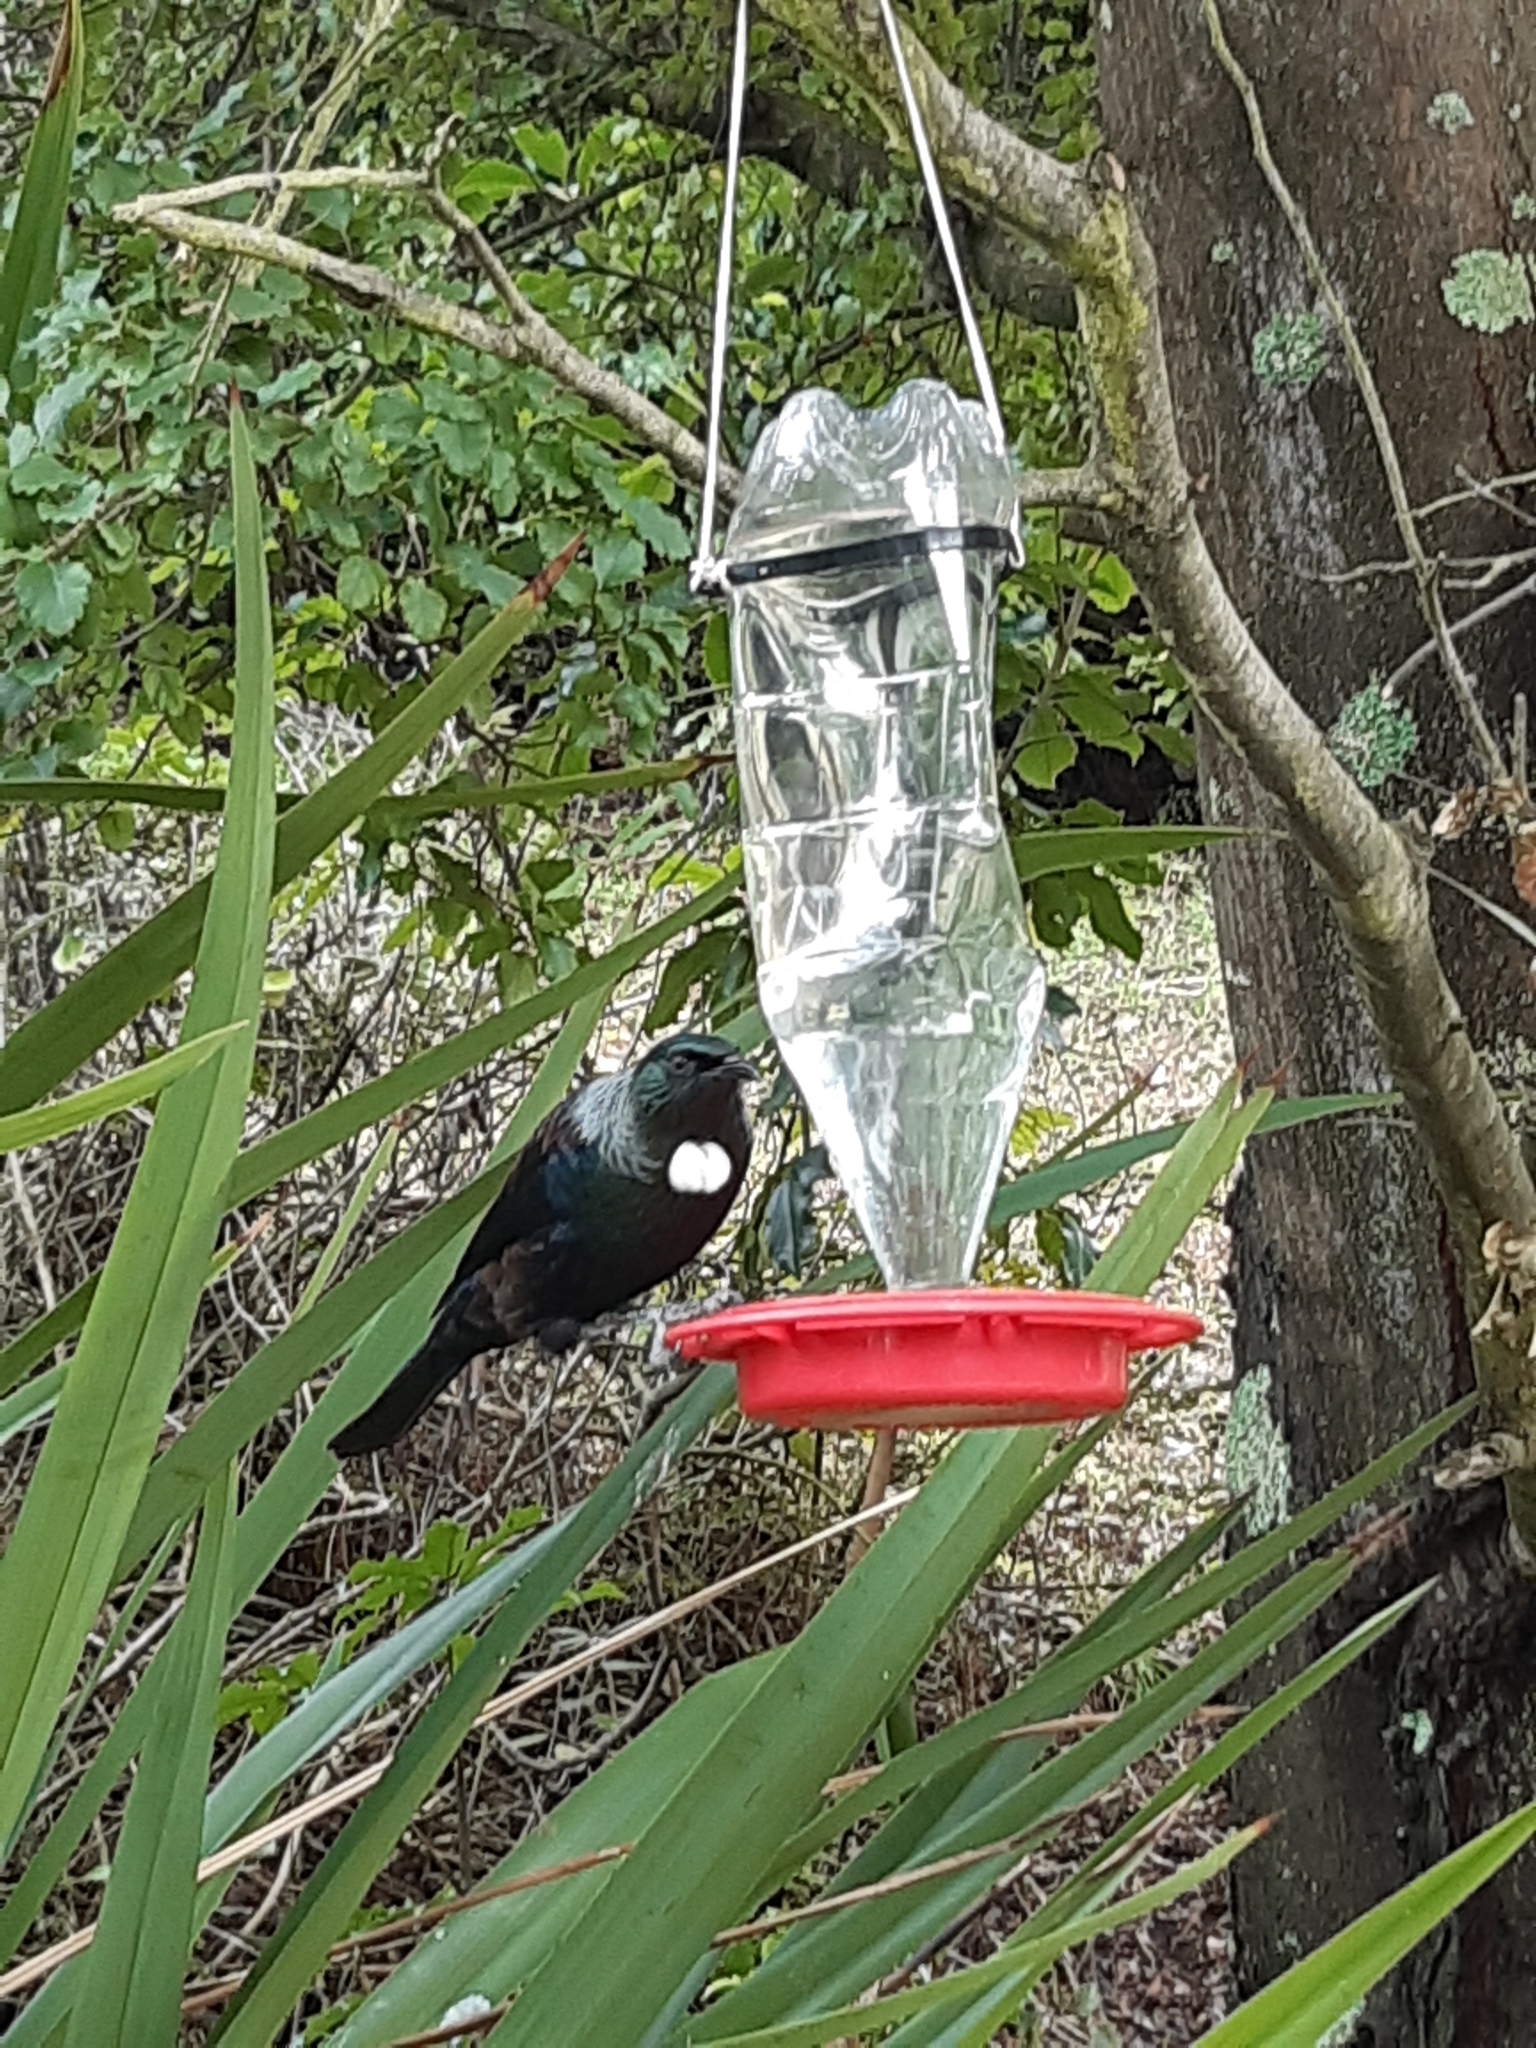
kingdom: Animalia
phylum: Chordata
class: Aves
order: Passeriformes
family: Meliphagidae
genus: Prosthemadera
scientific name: Prosthemadera novaeseelandiae
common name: Tui
